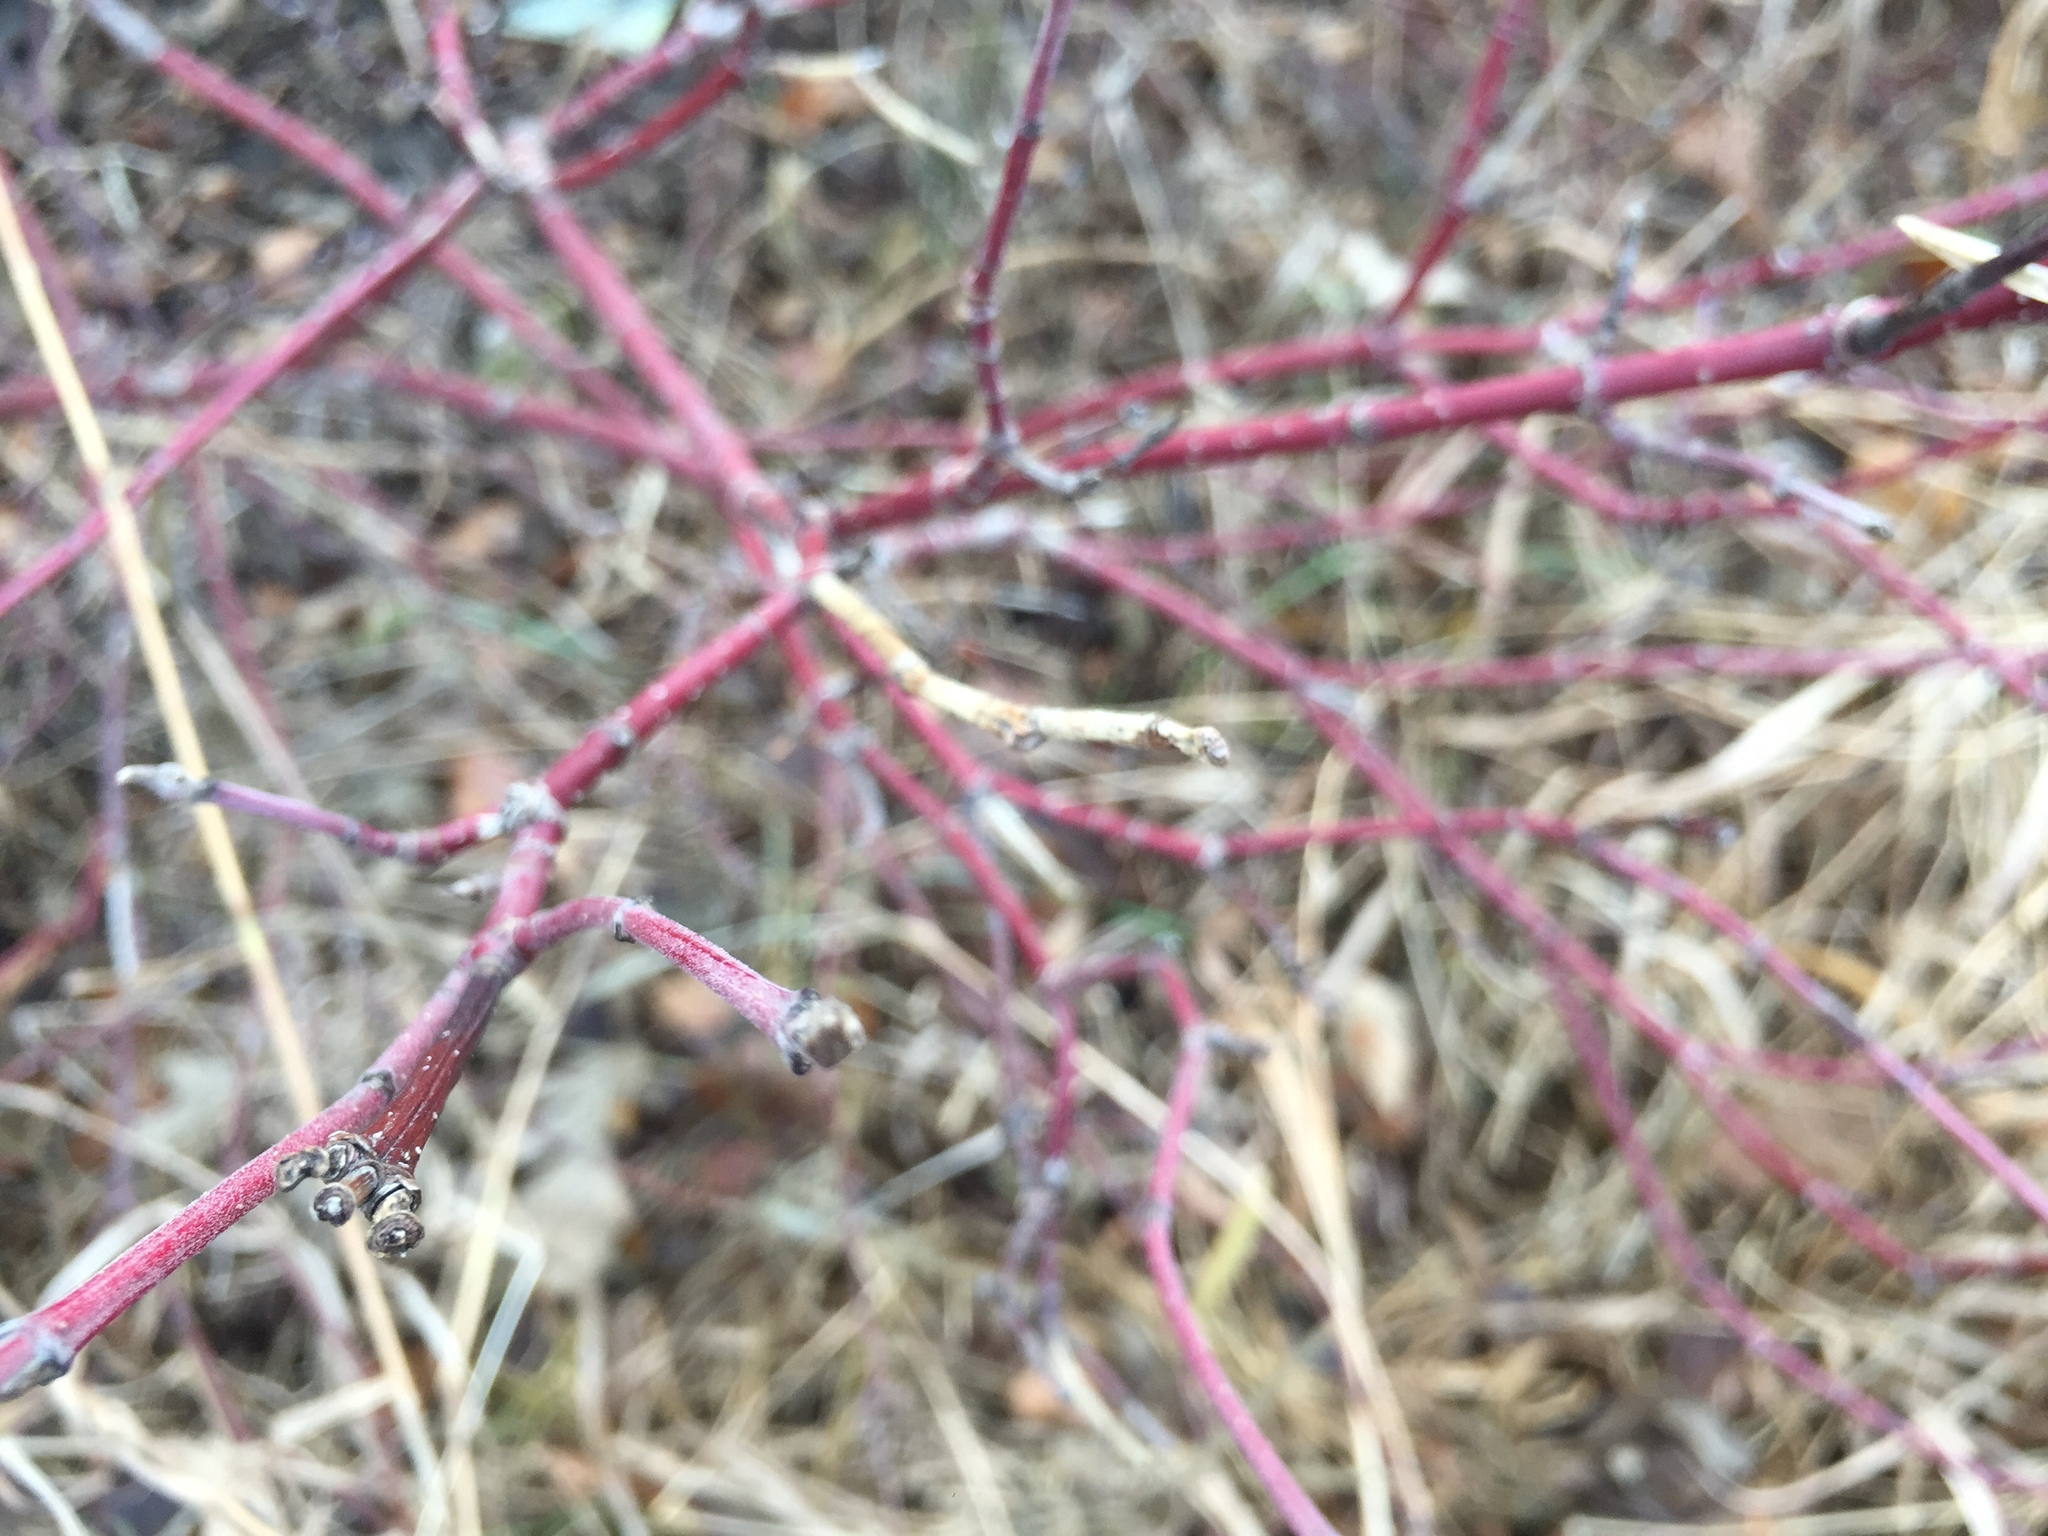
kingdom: Plantae
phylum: Tracheophyta
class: Magnoliopsida
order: Cornales
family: Cornaceae
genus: Cornus
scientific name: Cornus sericea
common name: Red-osier dogwood
